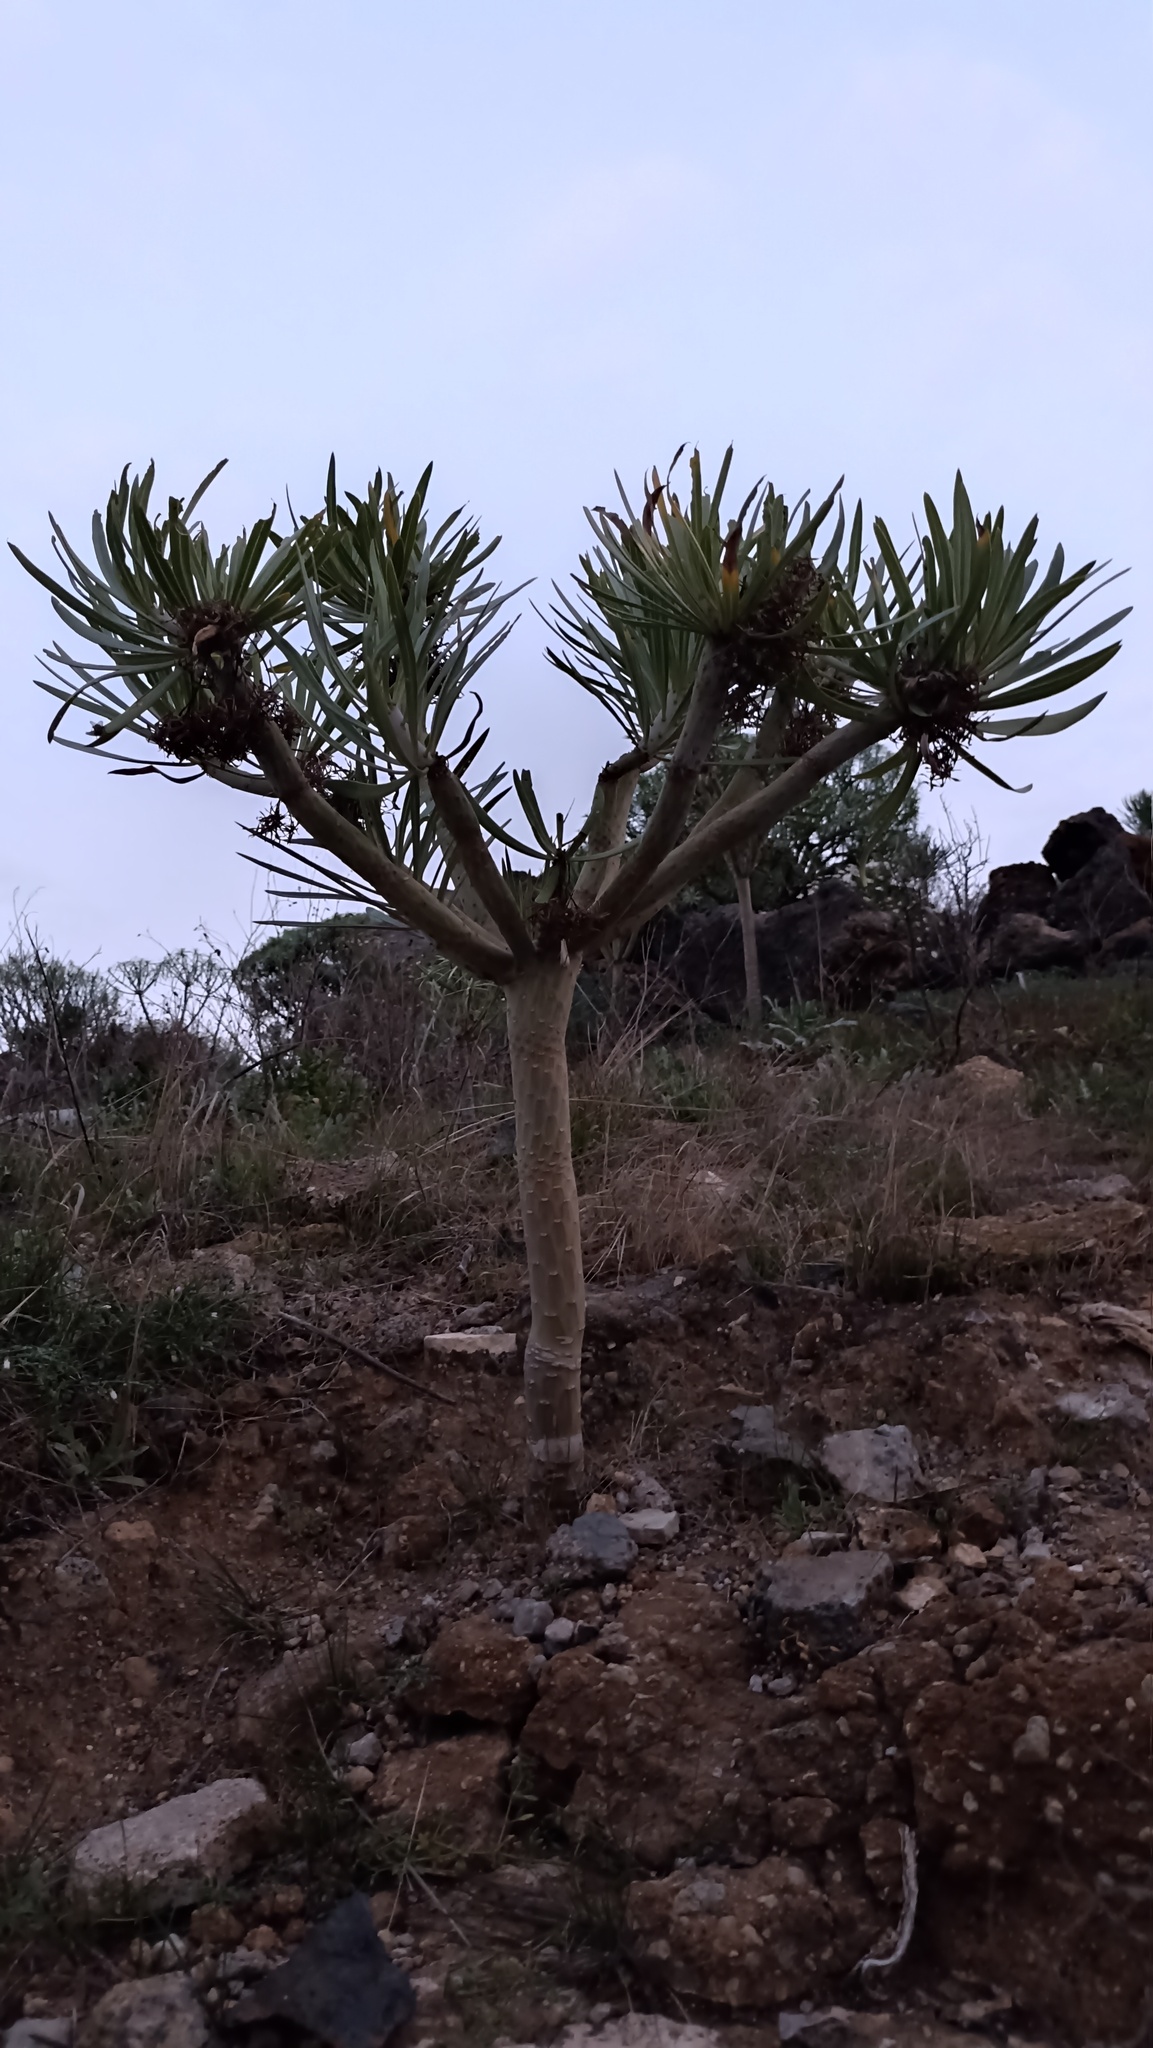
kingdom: Plantae
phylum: Tracheophyta
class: Magnoliopsida
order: Asterales
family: Asteraceae
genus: Kleinia
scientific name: Kleinia neriifolia
